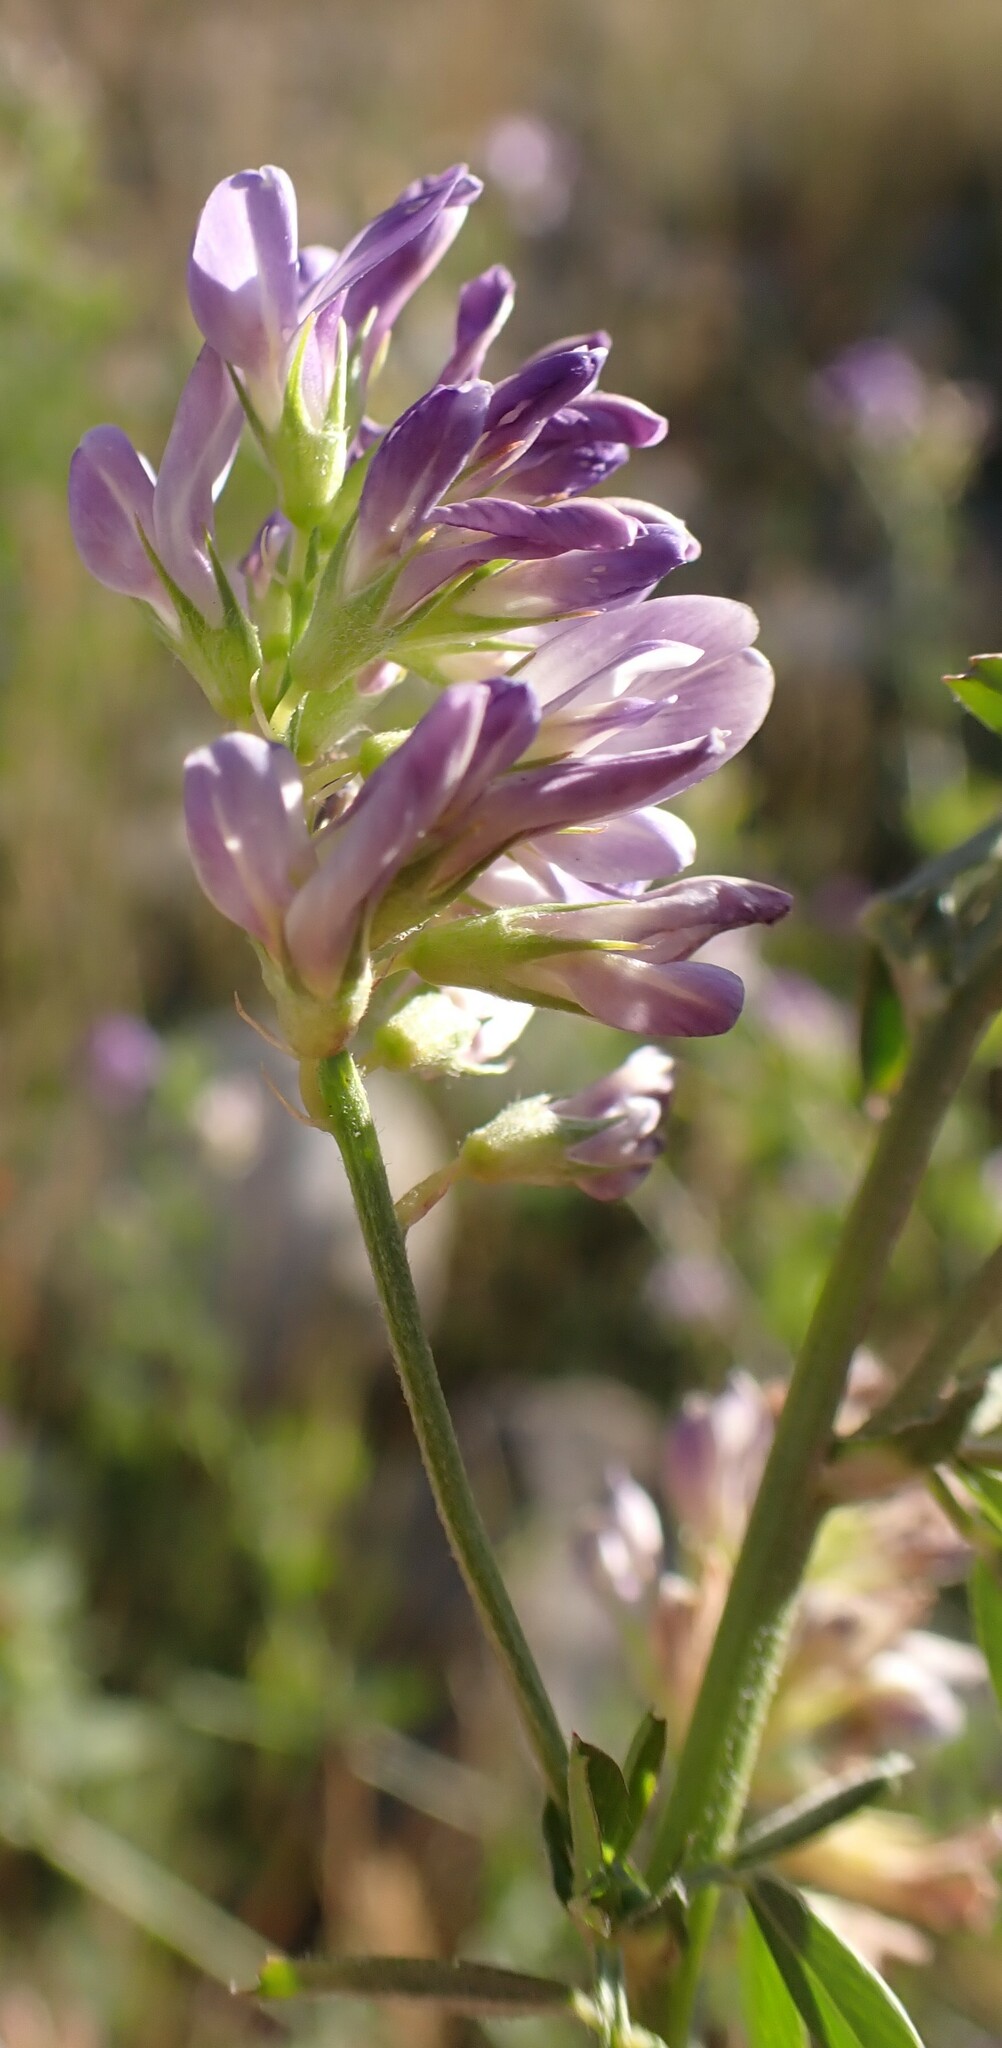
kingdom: Plantae
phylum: Tracheophyta
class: Magnoliopsida
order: Fabales
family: Fabaceae
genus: Medicago
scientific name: Medicago sativa
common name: Alfalfa
